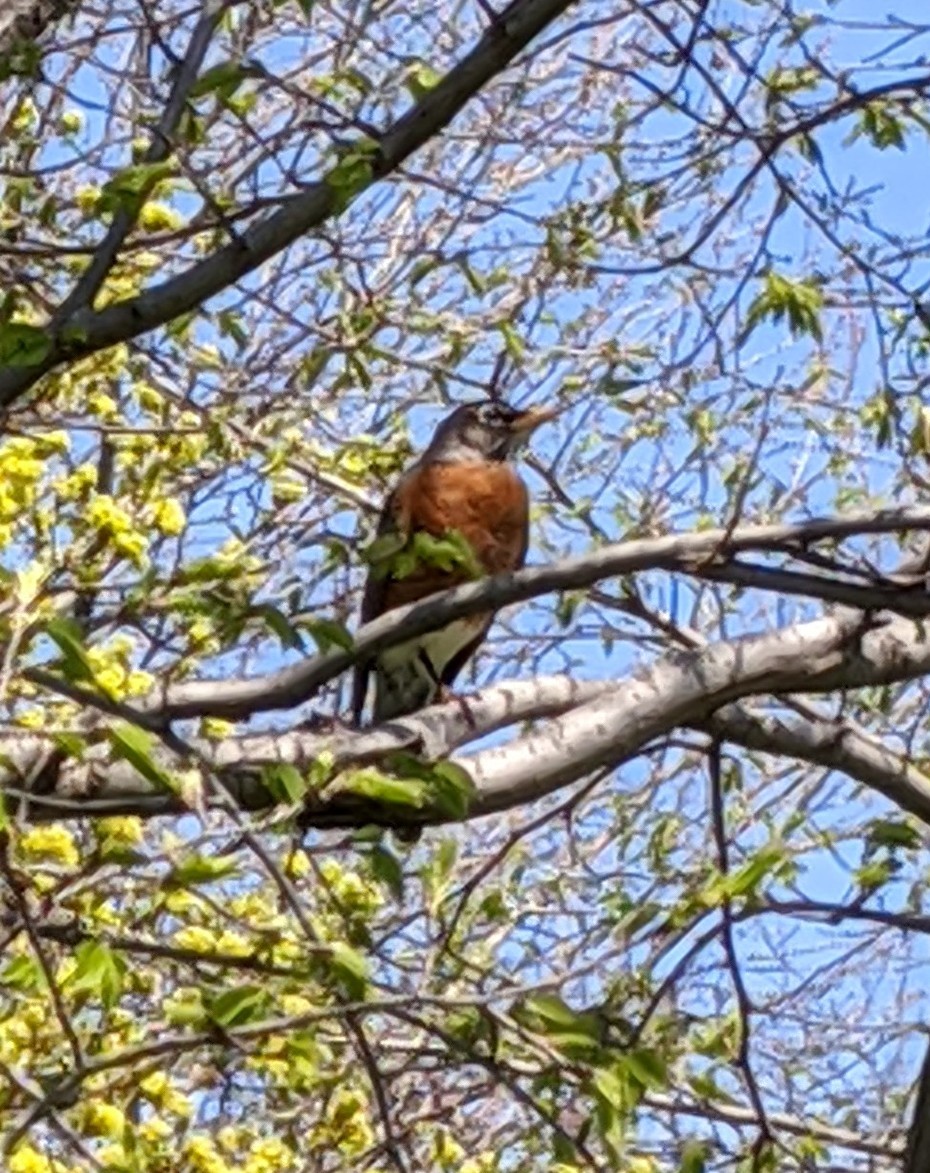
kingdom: Animalia
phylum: Chordata
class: Aves
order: Passeriformes
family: Turdidae
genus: Turdus
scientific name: Turdus migratorius
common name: American robin
